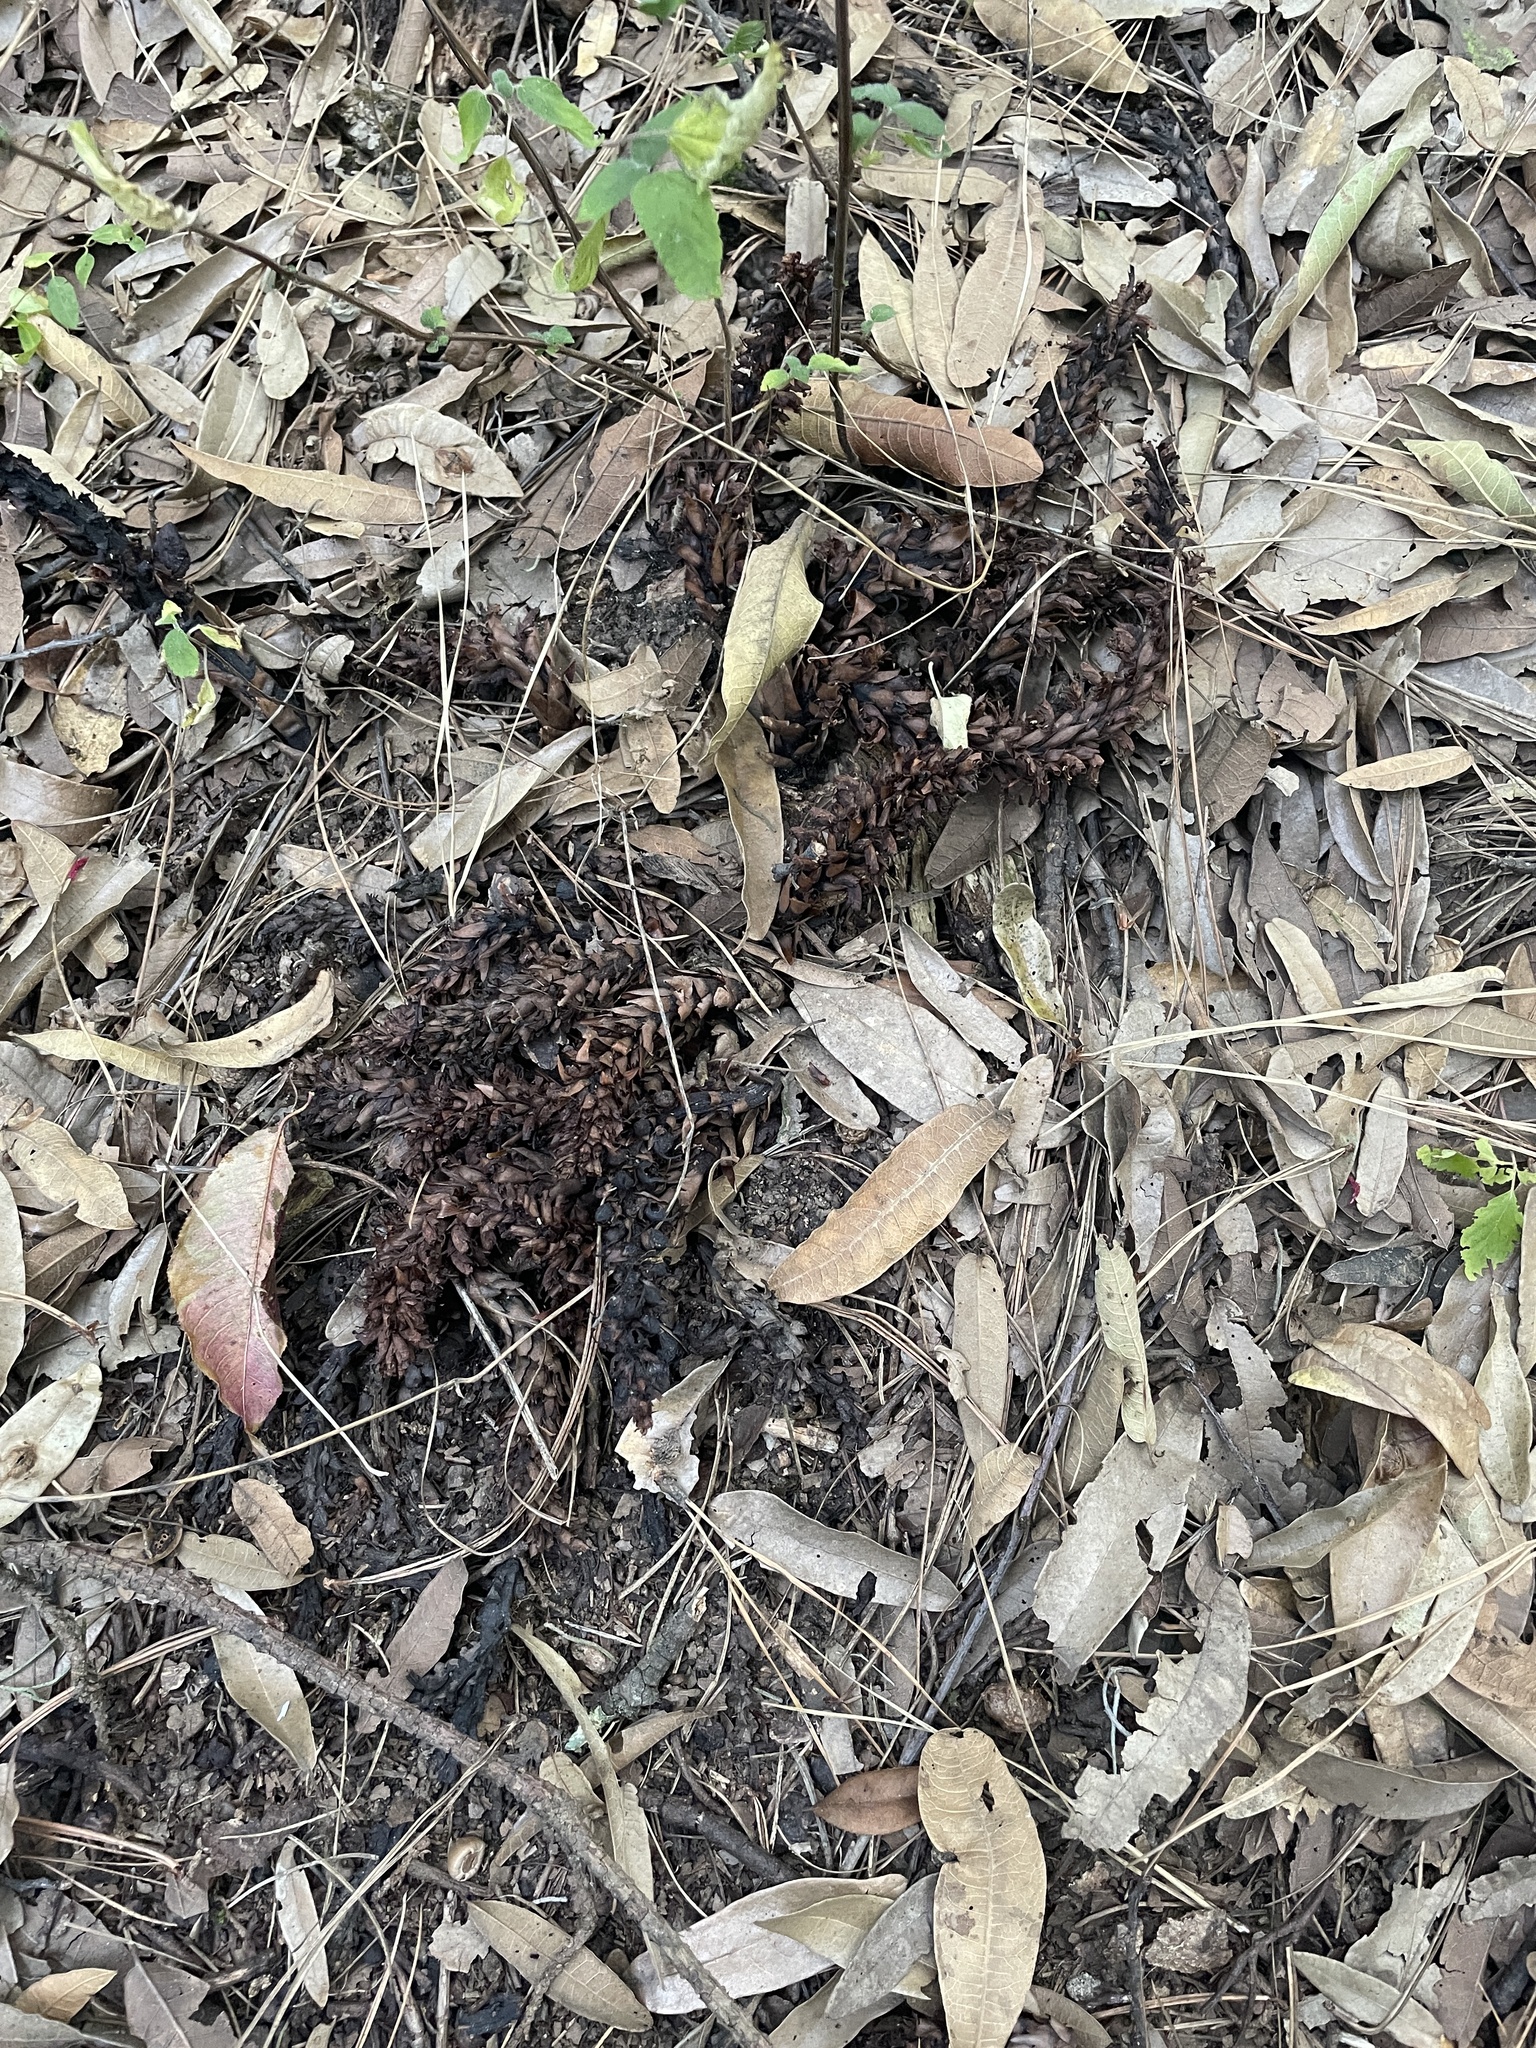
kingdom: Plantae
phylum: Tracheophyta
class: Magnoliopsida
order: Lamiales
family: Orobanchaceae
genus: Conopholis
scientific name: Conopholis alpina
